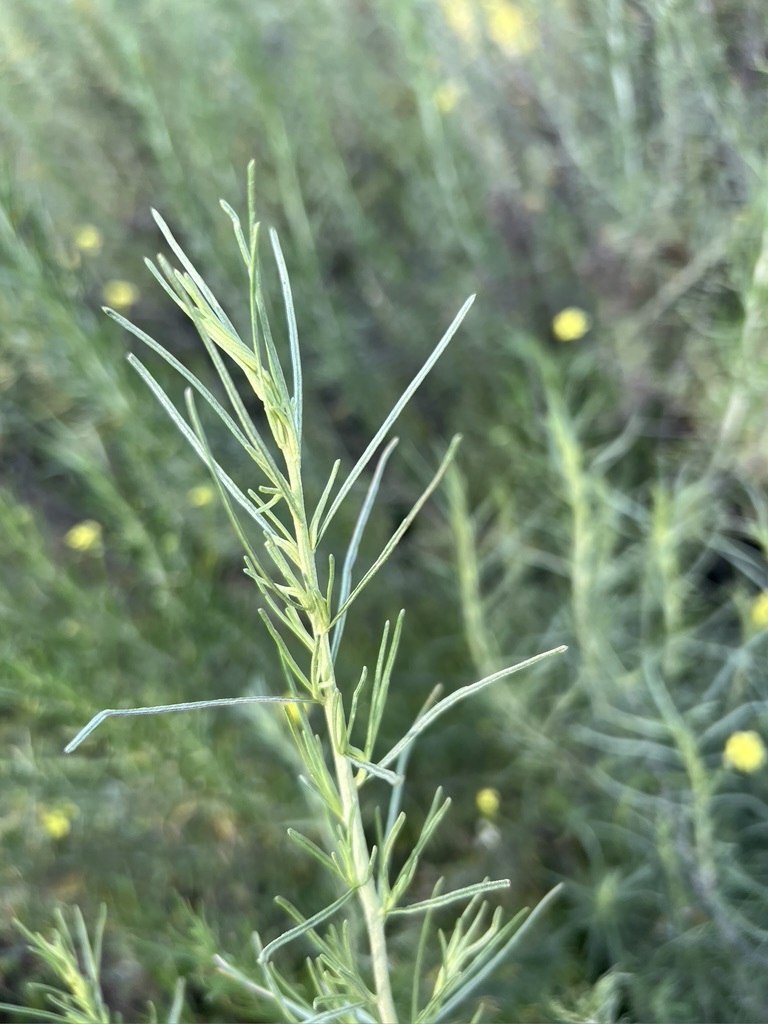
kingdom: Plantae
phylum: Tracheophyta
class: Magnoliopsida
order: Asterales
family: Asteraceae
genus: Artemisia
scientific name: Artemisia californica
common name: California sagebrush
